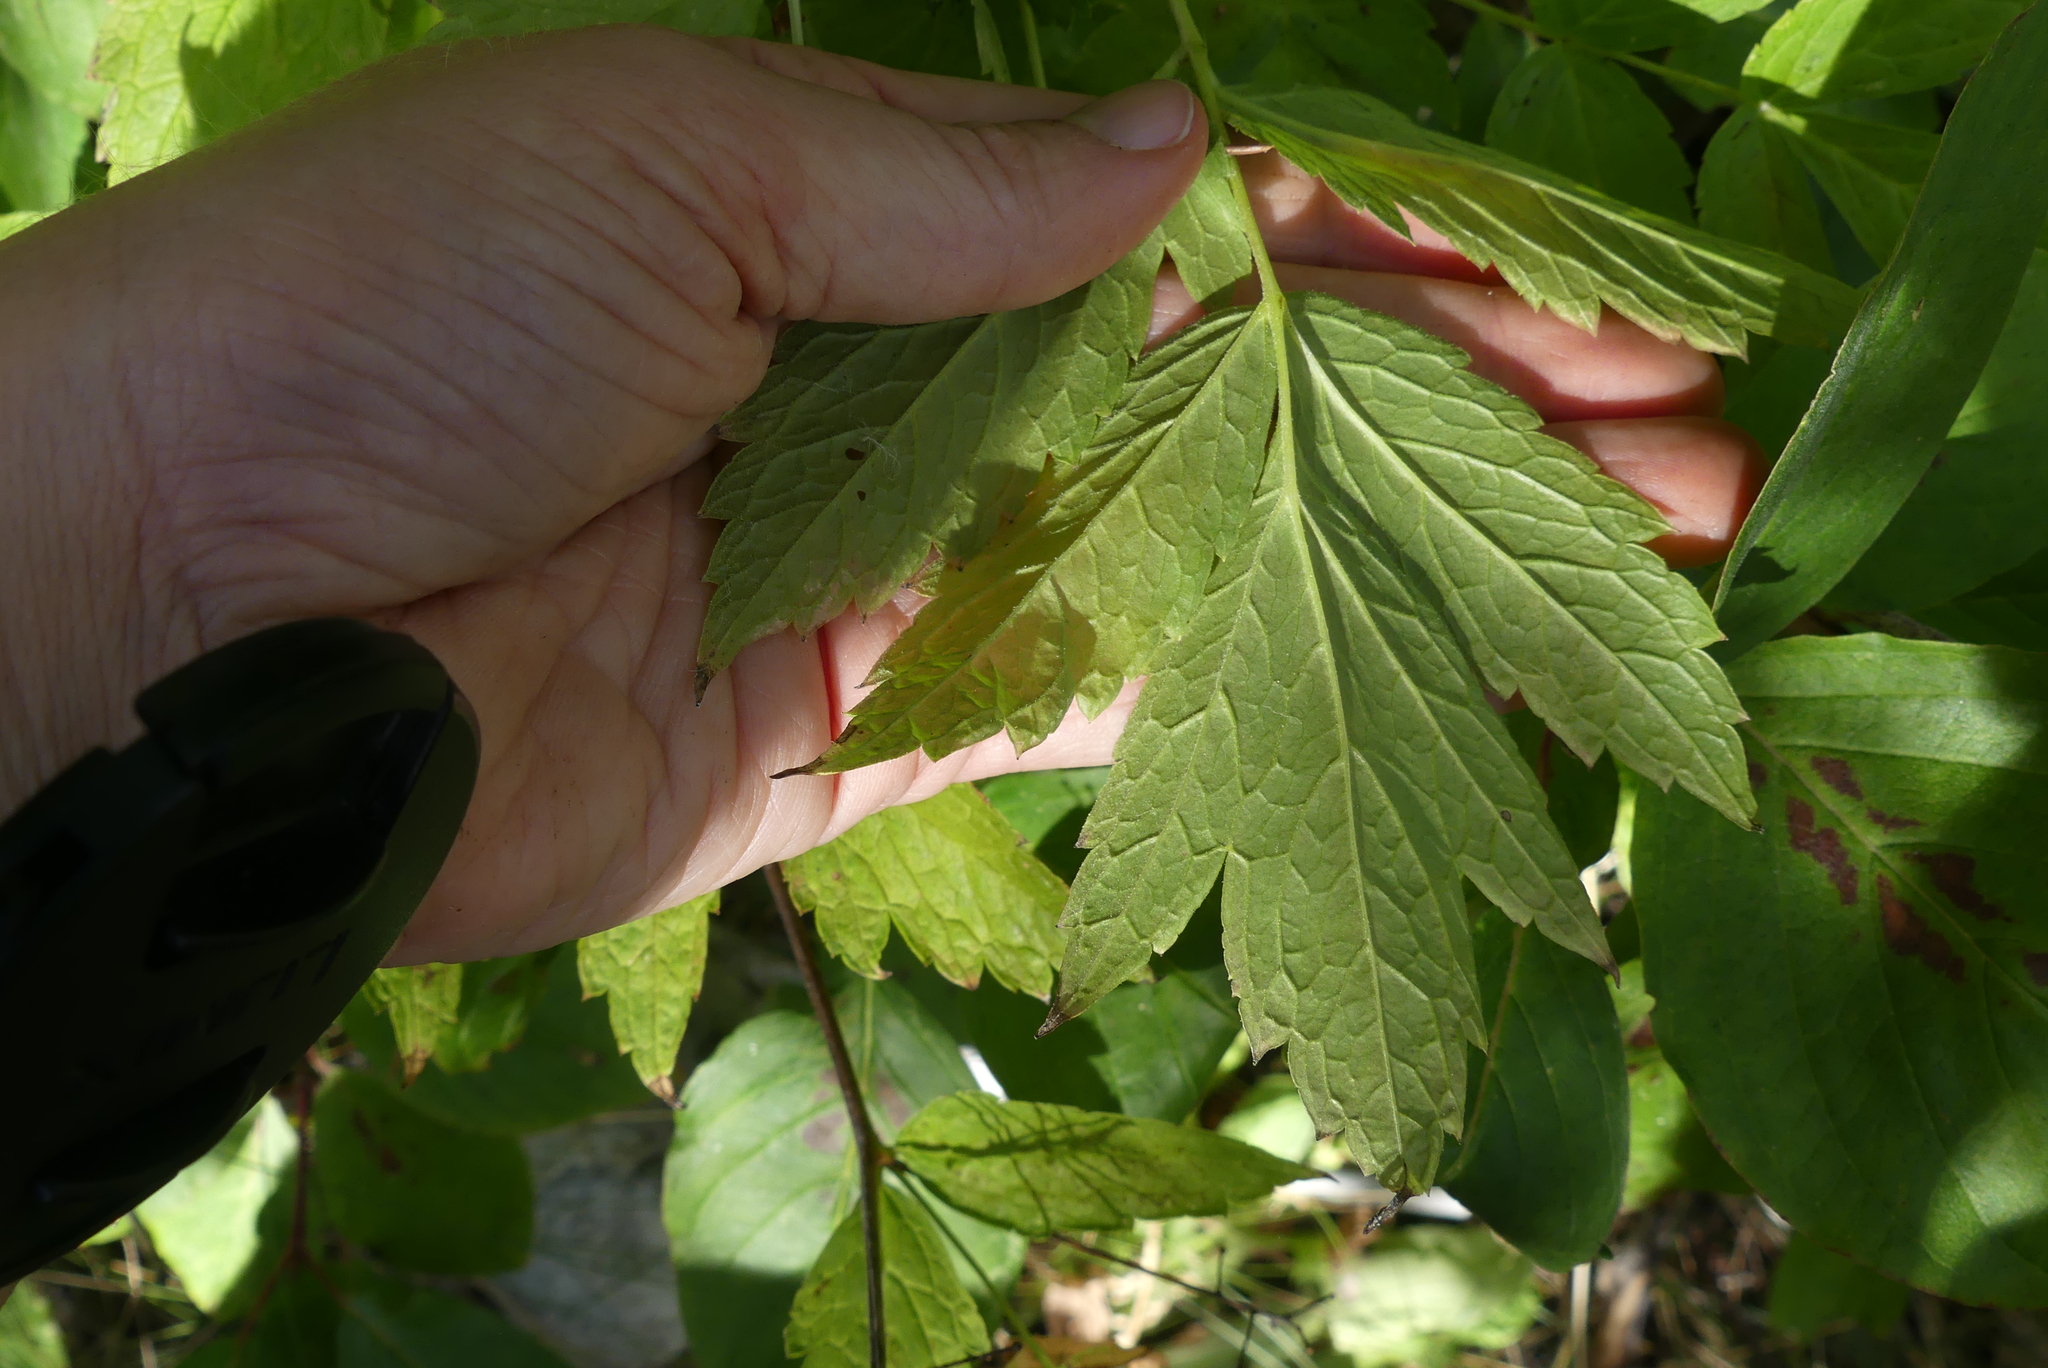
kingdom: Plantae
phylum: Tracheophyta
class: Magnoliopsida
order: Ranunculales
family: Ranunculaceae
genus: Actaea
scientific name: Actaea rubra
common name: Red baneberry
